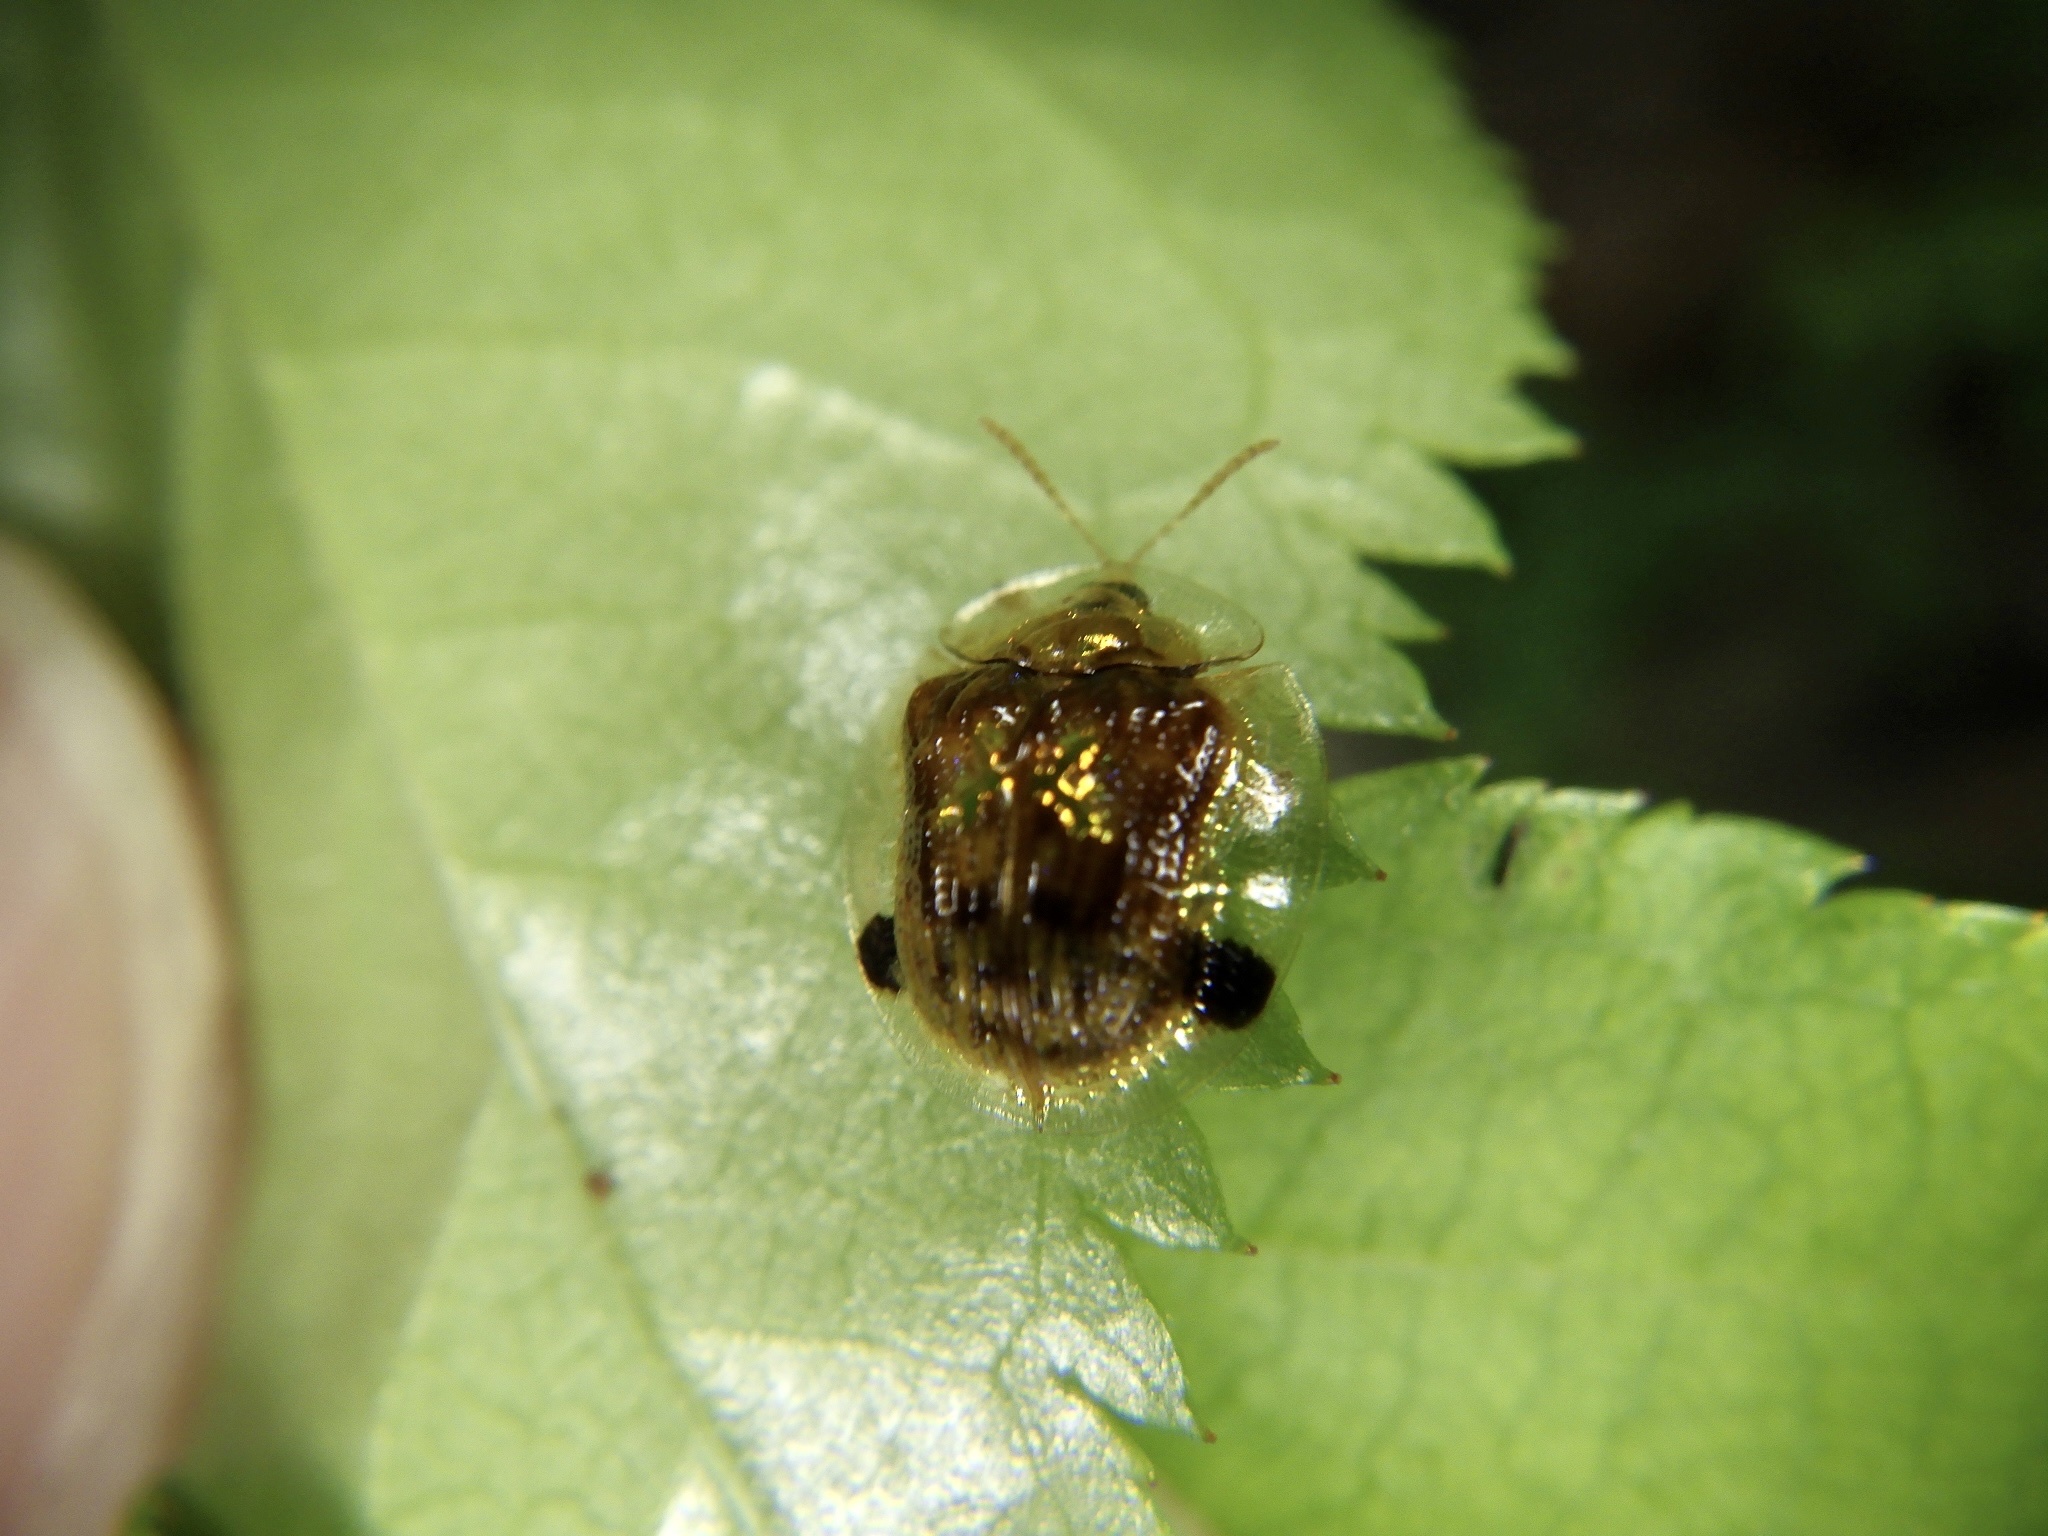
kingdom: Animalia
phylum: Arthropoda
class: Insecta
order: Coleoptera
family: Chrysomelidae
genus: Cassida
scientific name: Cassida versicolor
